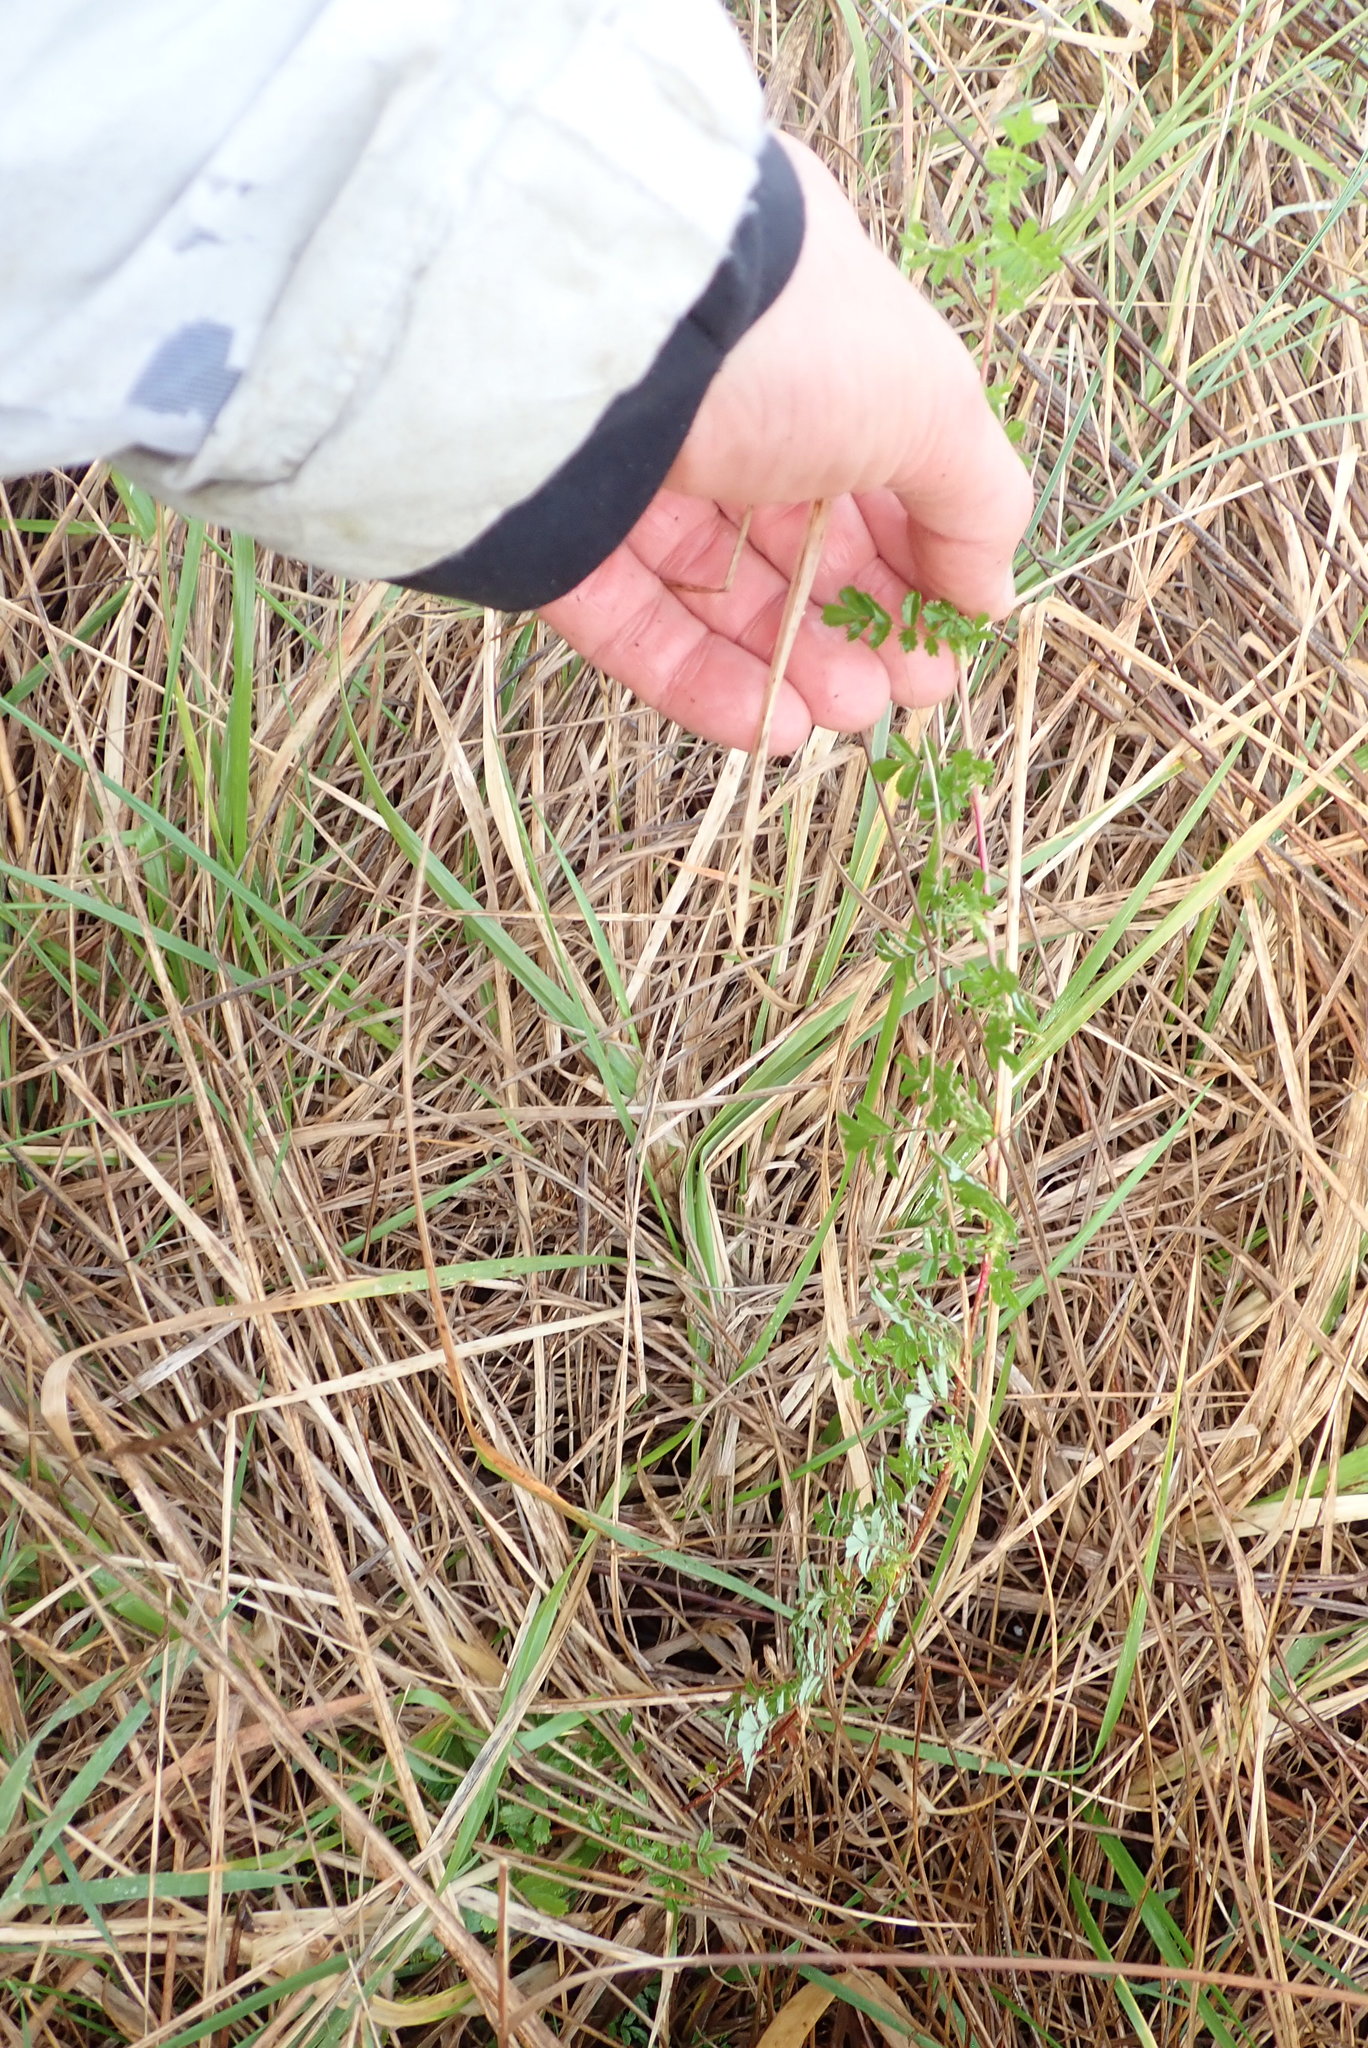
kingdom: Plantae
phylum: Tracheophyta
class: Magnoliopsida
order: Rosales
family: Rosaceae
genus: Acaena
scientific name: Acaena novae-zelandiae
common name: Pirri-pirri-bur
